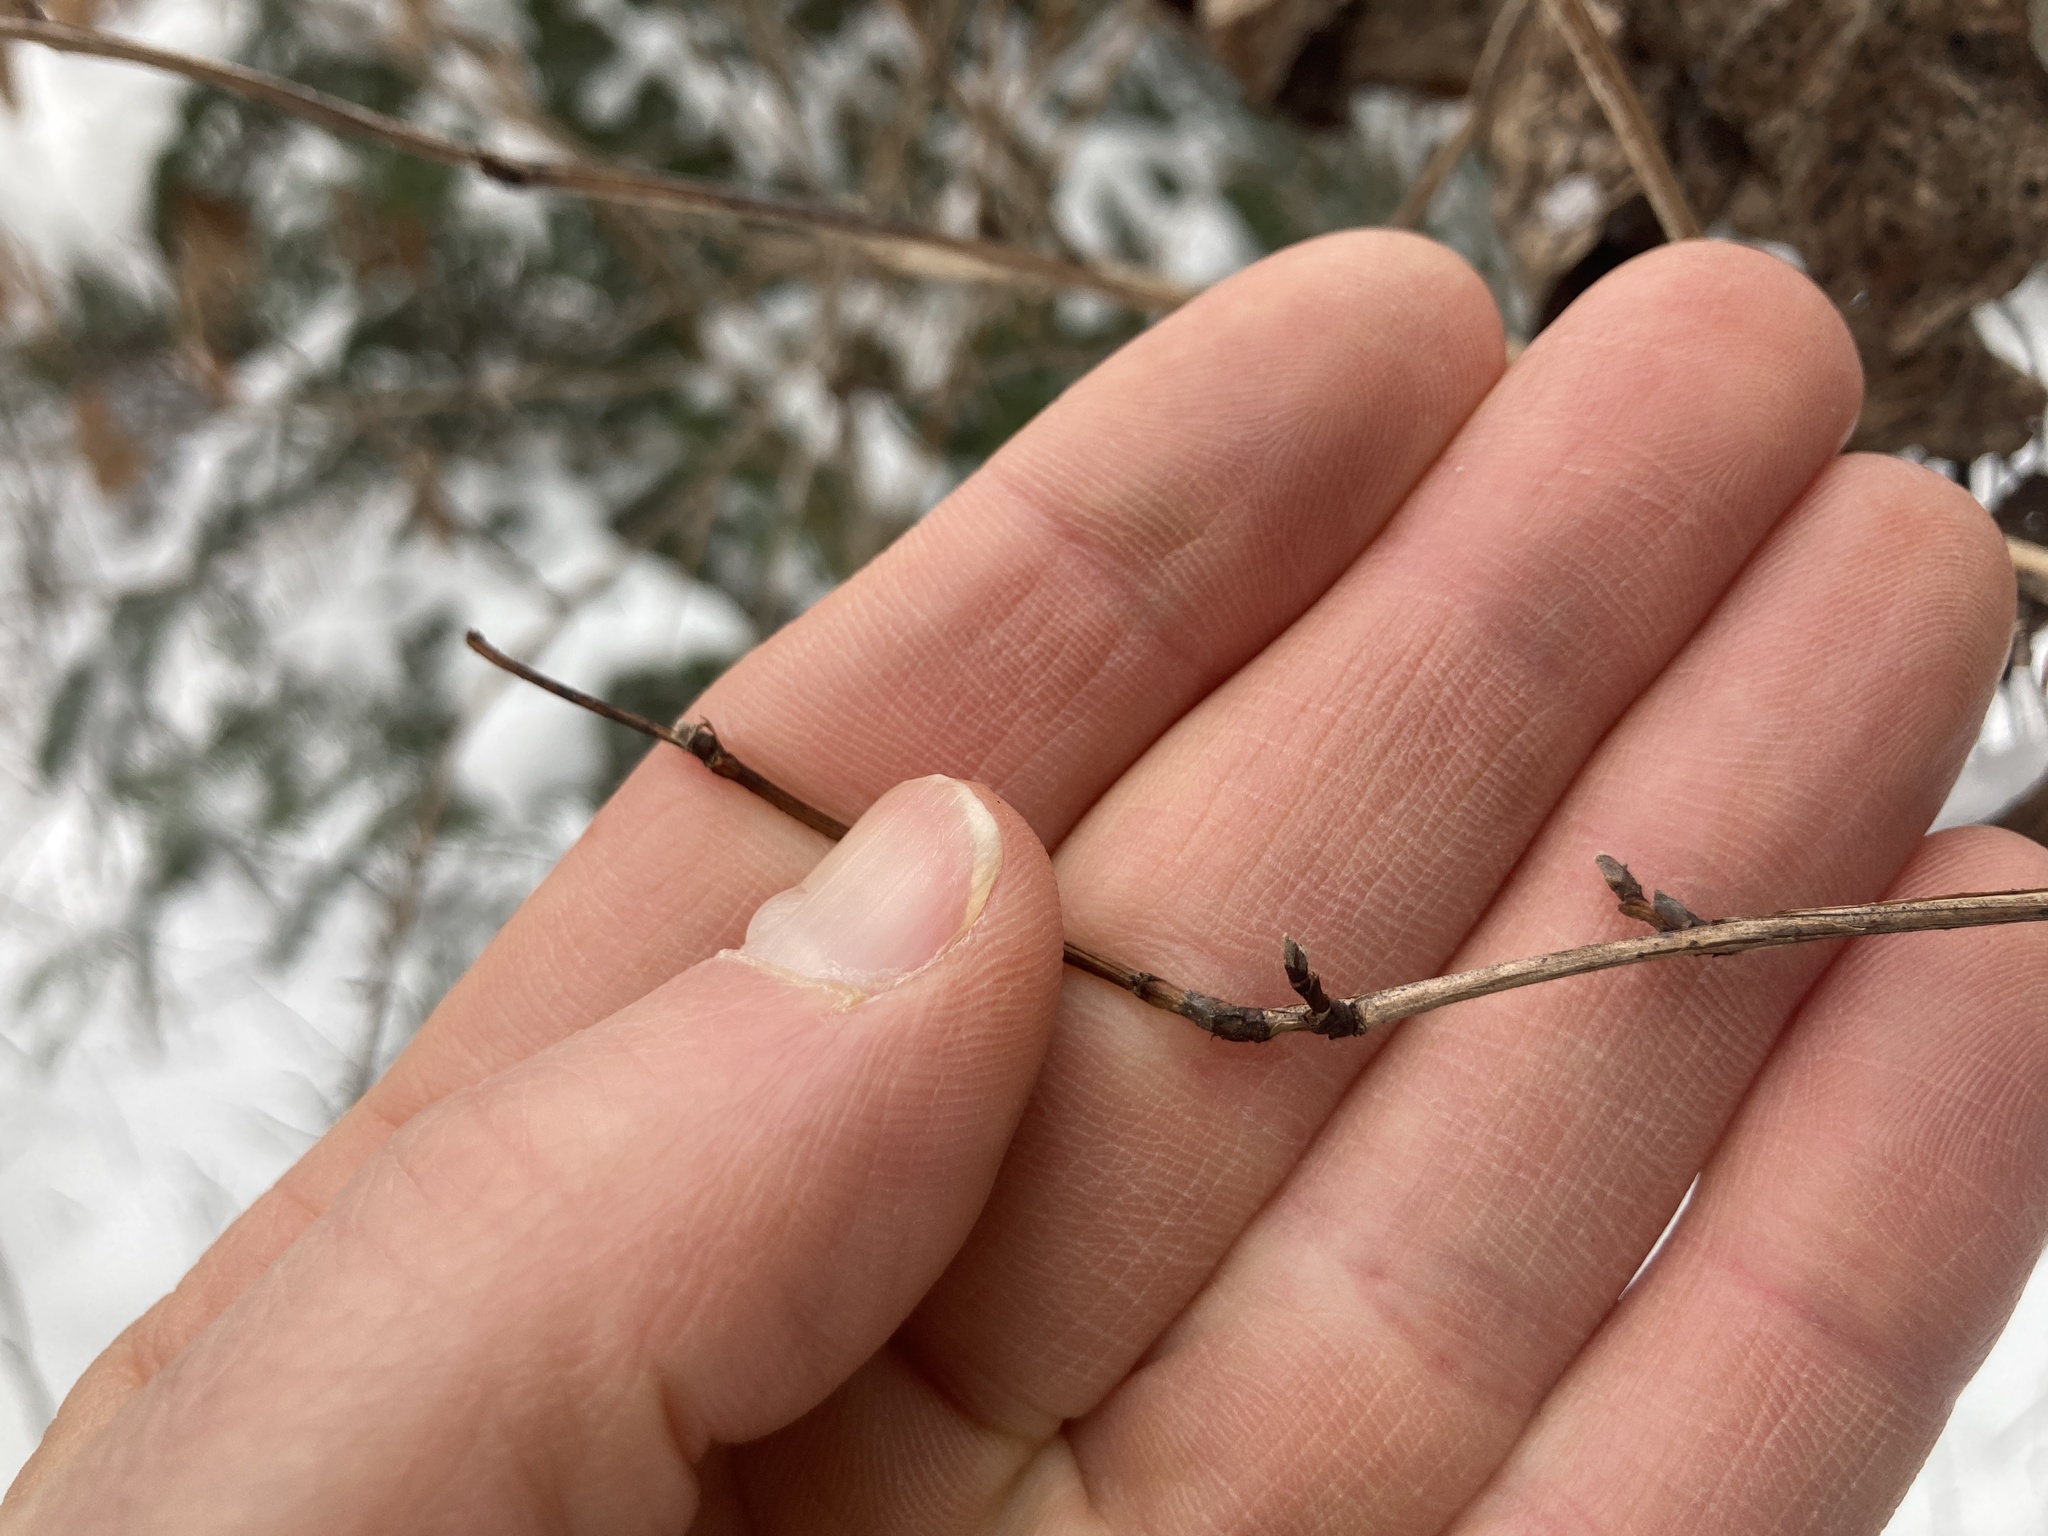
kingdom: Plantae
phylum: Tracheophyta
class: Magnoliopsida
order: Rosales
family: Rosaceae
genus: Physocarpus
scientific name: Physocarpus opulifolius
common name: Ninebark
